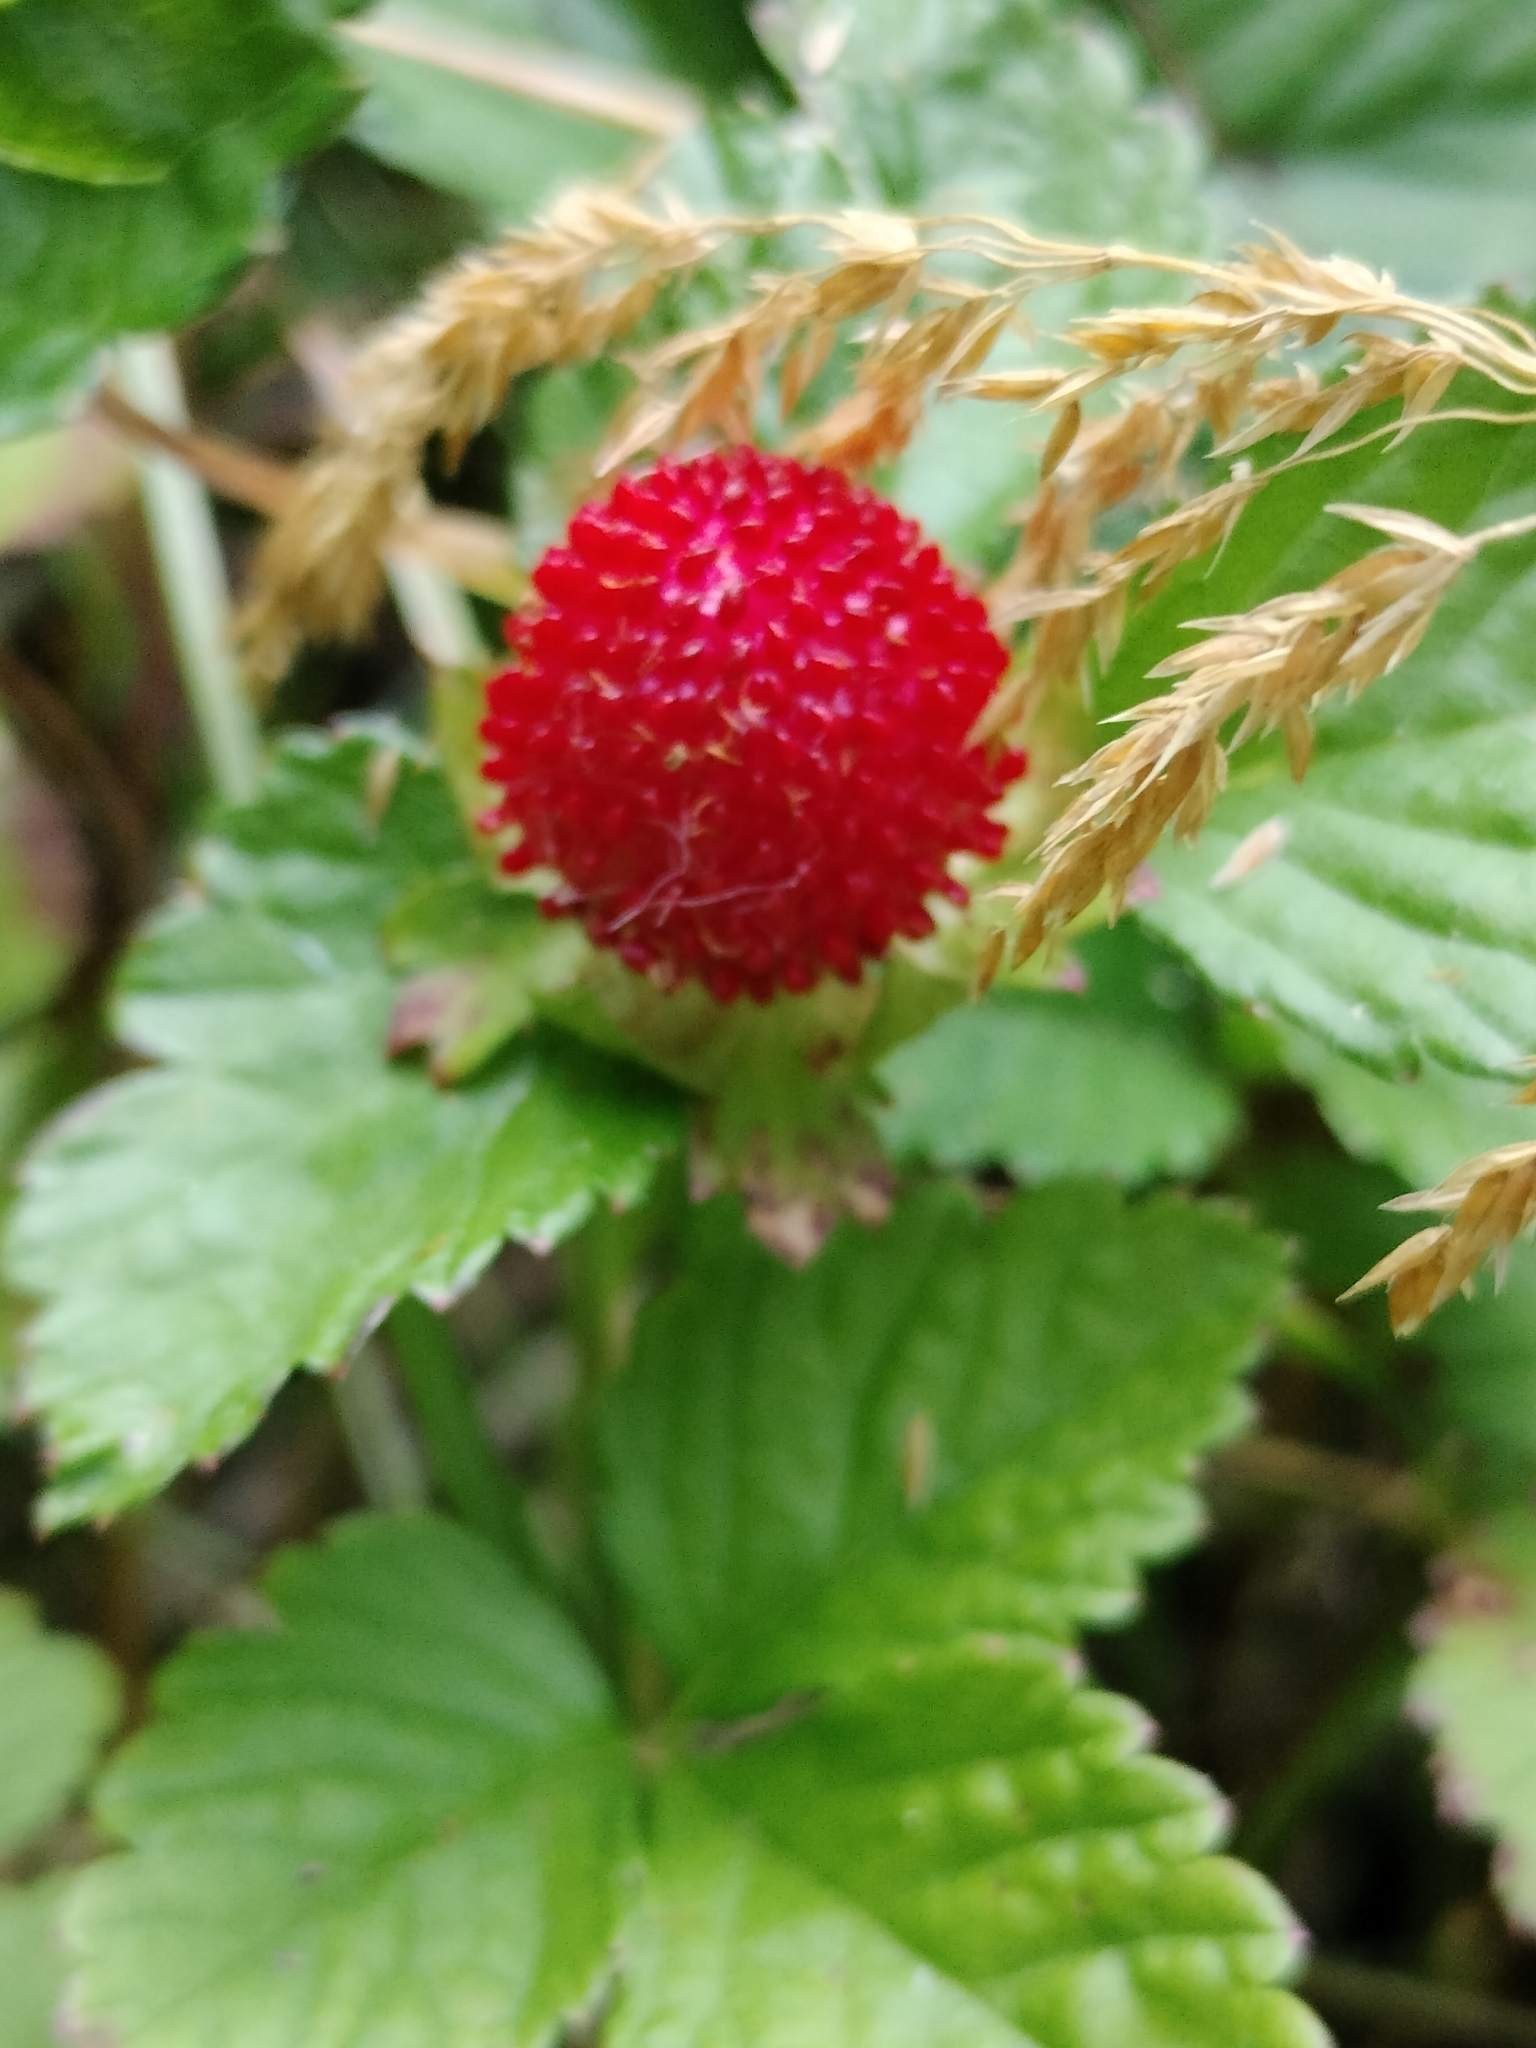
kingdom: Plantae
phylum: Tracheophyta
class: Magnoliopsida
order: Rosales
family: Rosaceae
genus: Potentilla
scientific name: Potentilla indica
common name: Yellow-flowered strawberry
